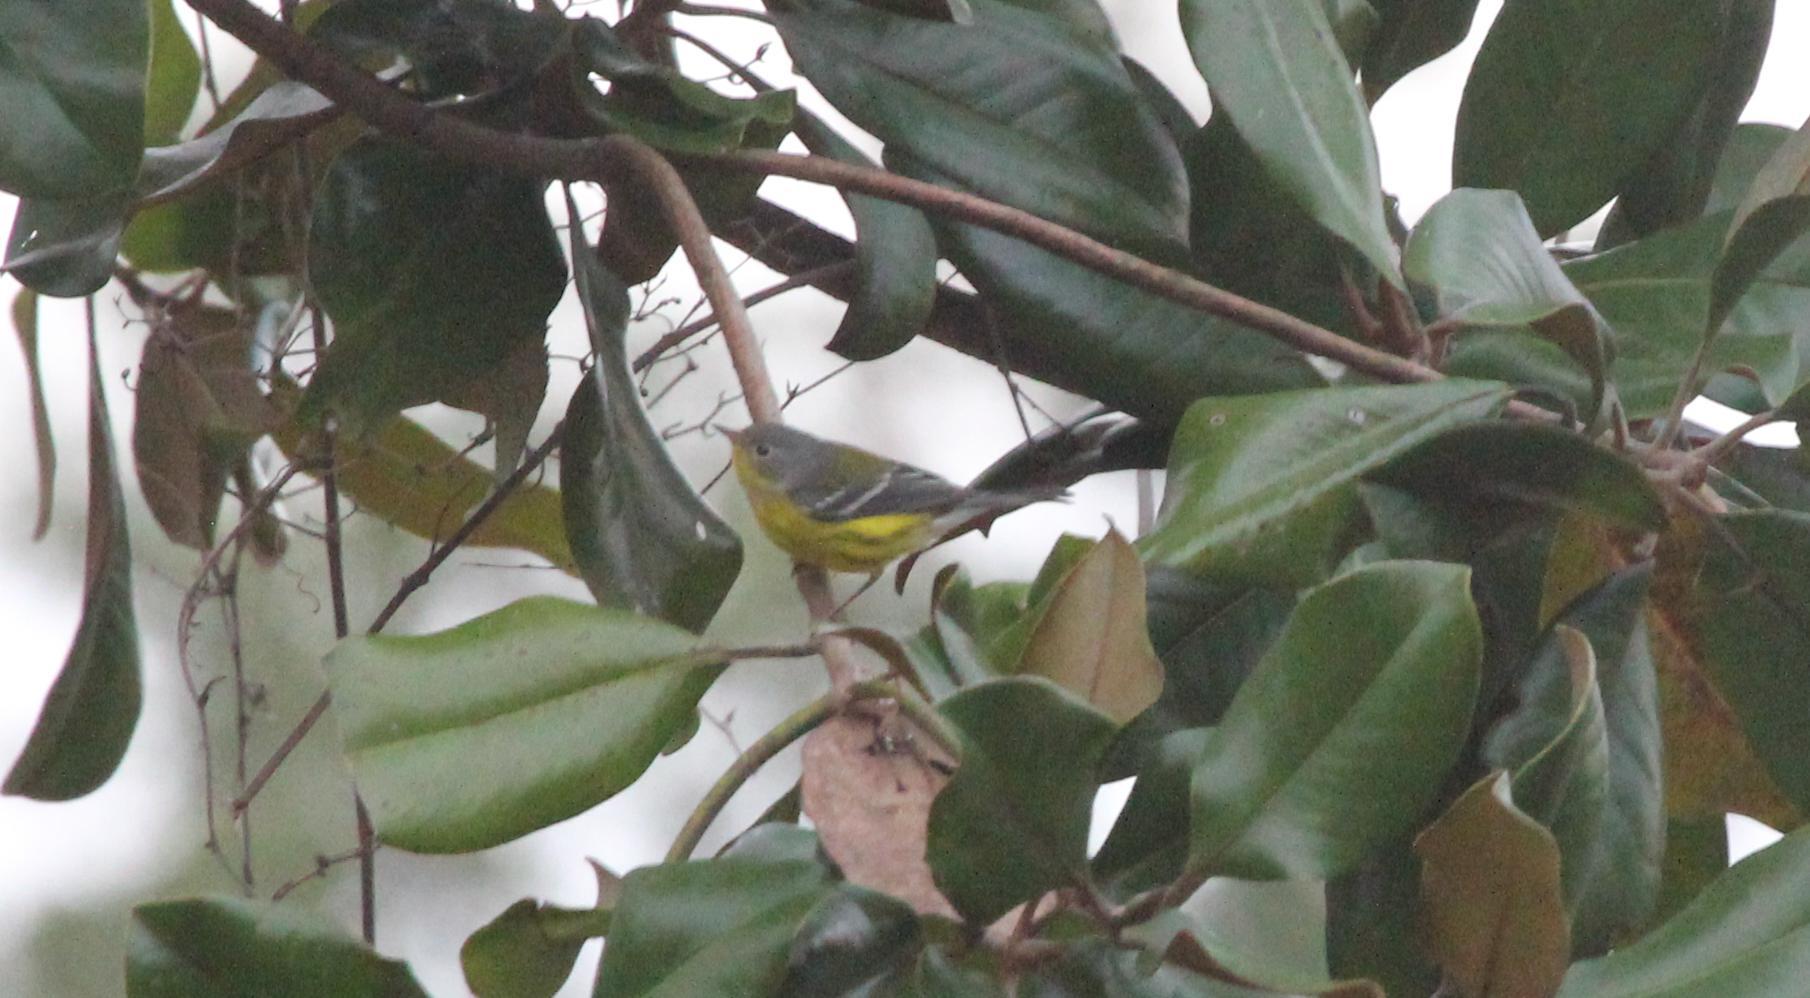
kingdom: Animalia
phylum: Chordata
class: Aves
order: Passeriformes
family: Parulidae
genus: Setophaga
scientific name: Setophaga magnolia
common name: Magnolia warbler
